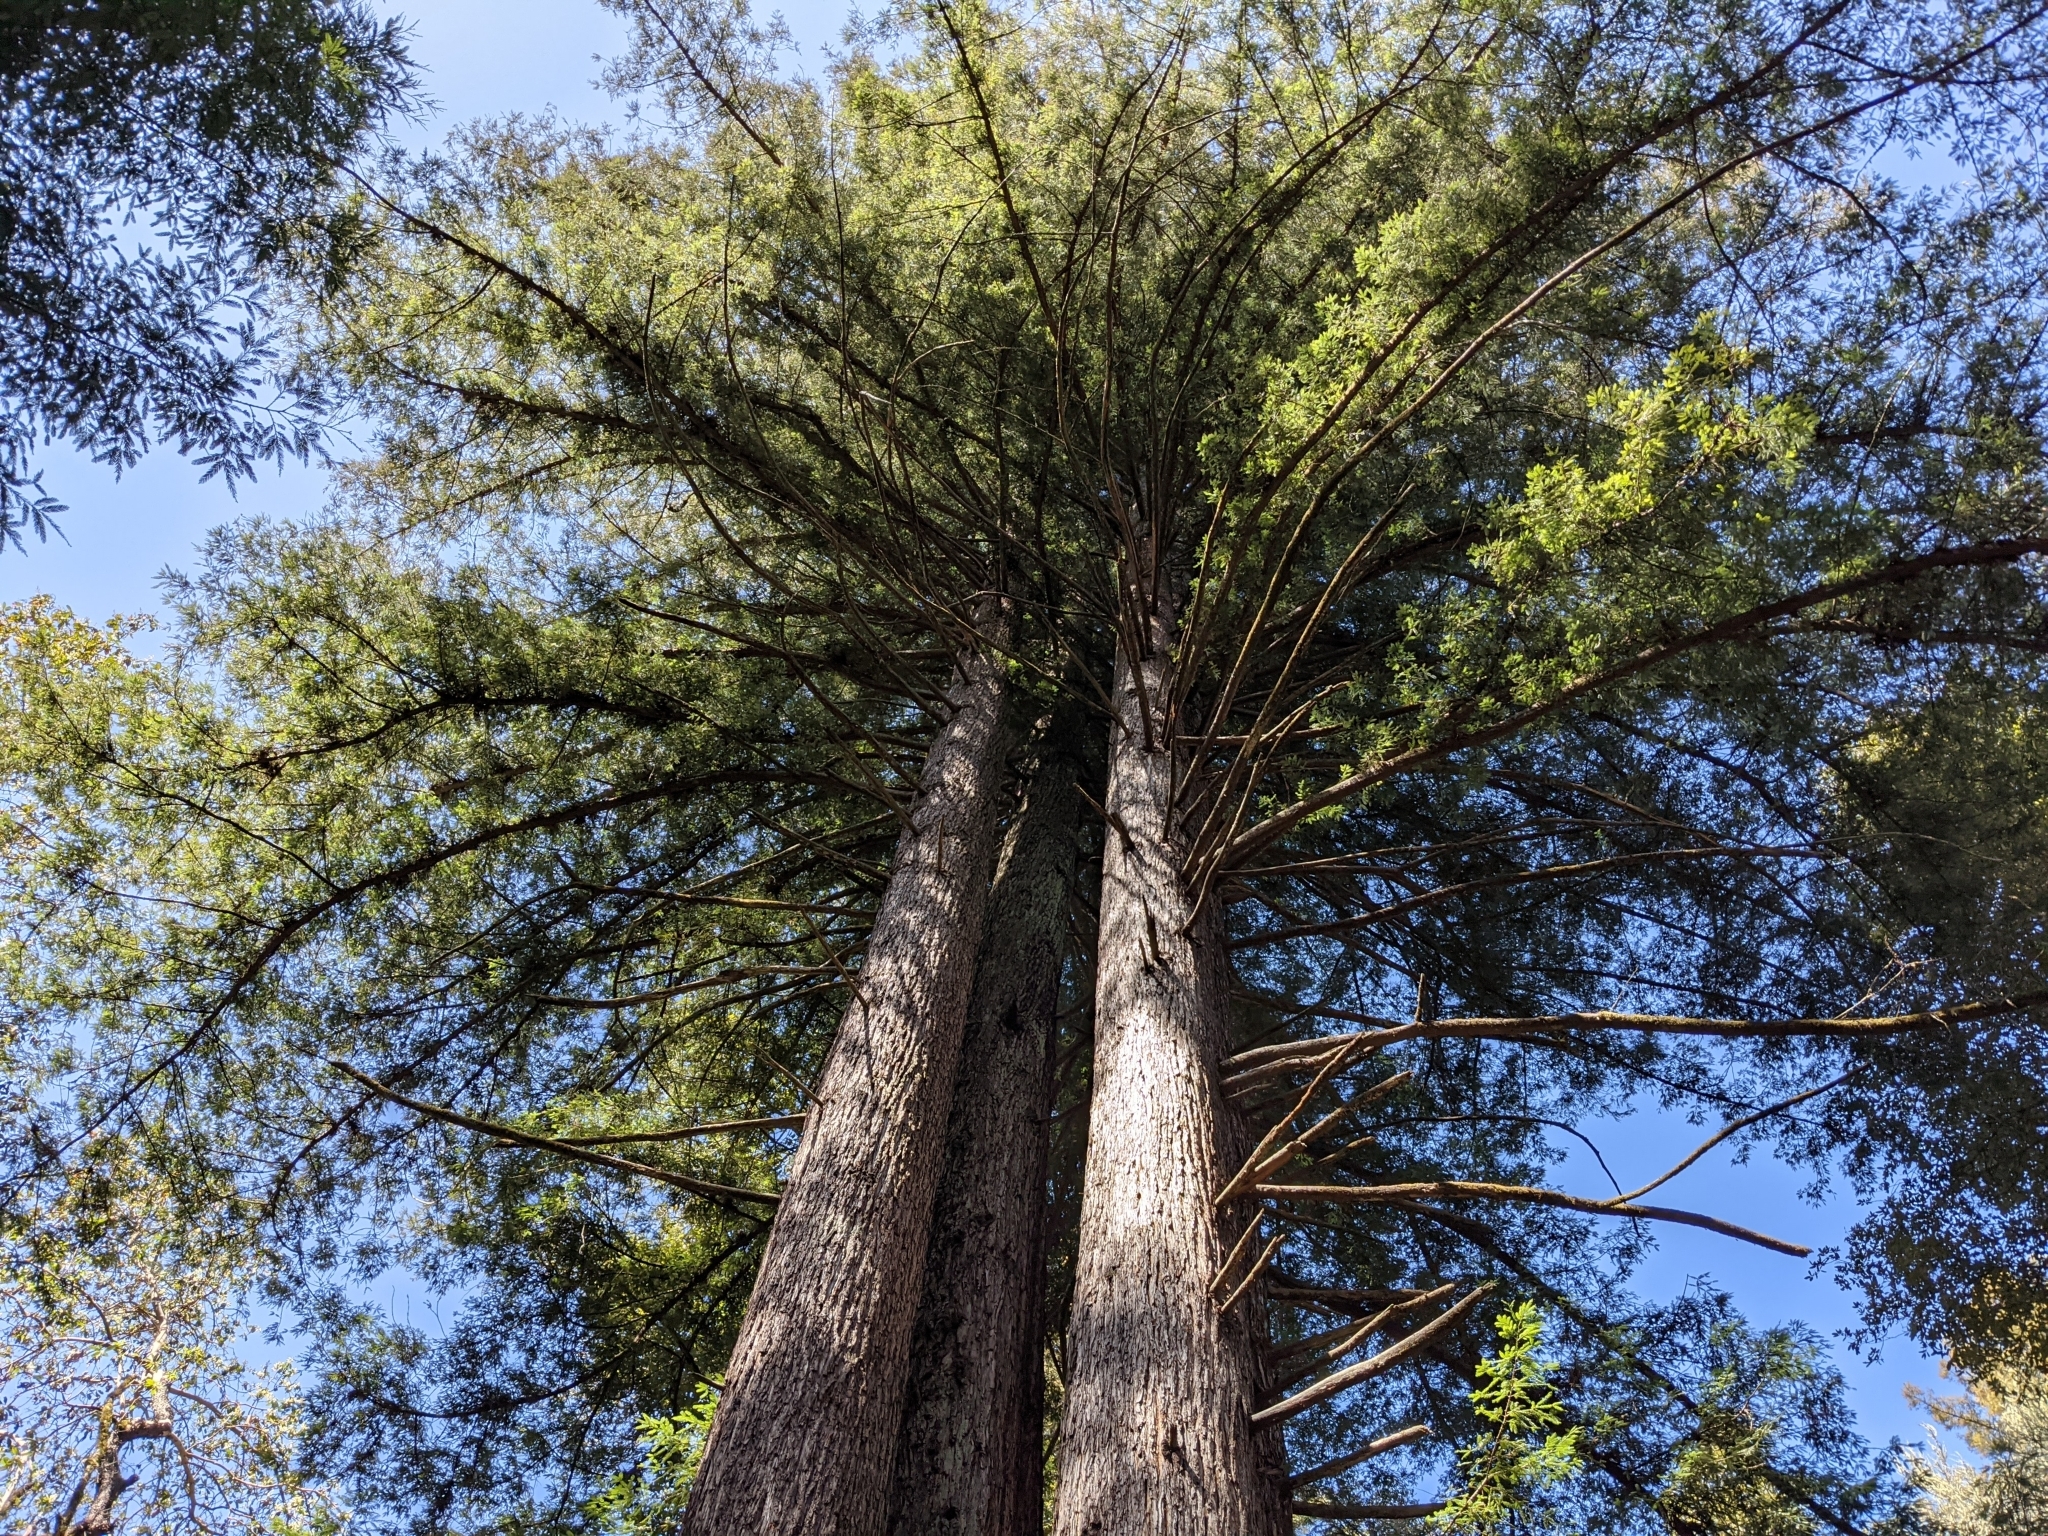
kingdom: Plantae
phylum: Tracheophyta
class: Pinopsida
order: Pinales
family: Cupressaceae
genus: Sequoia
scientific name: Sequoia sempervirens
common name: Coast redwood
